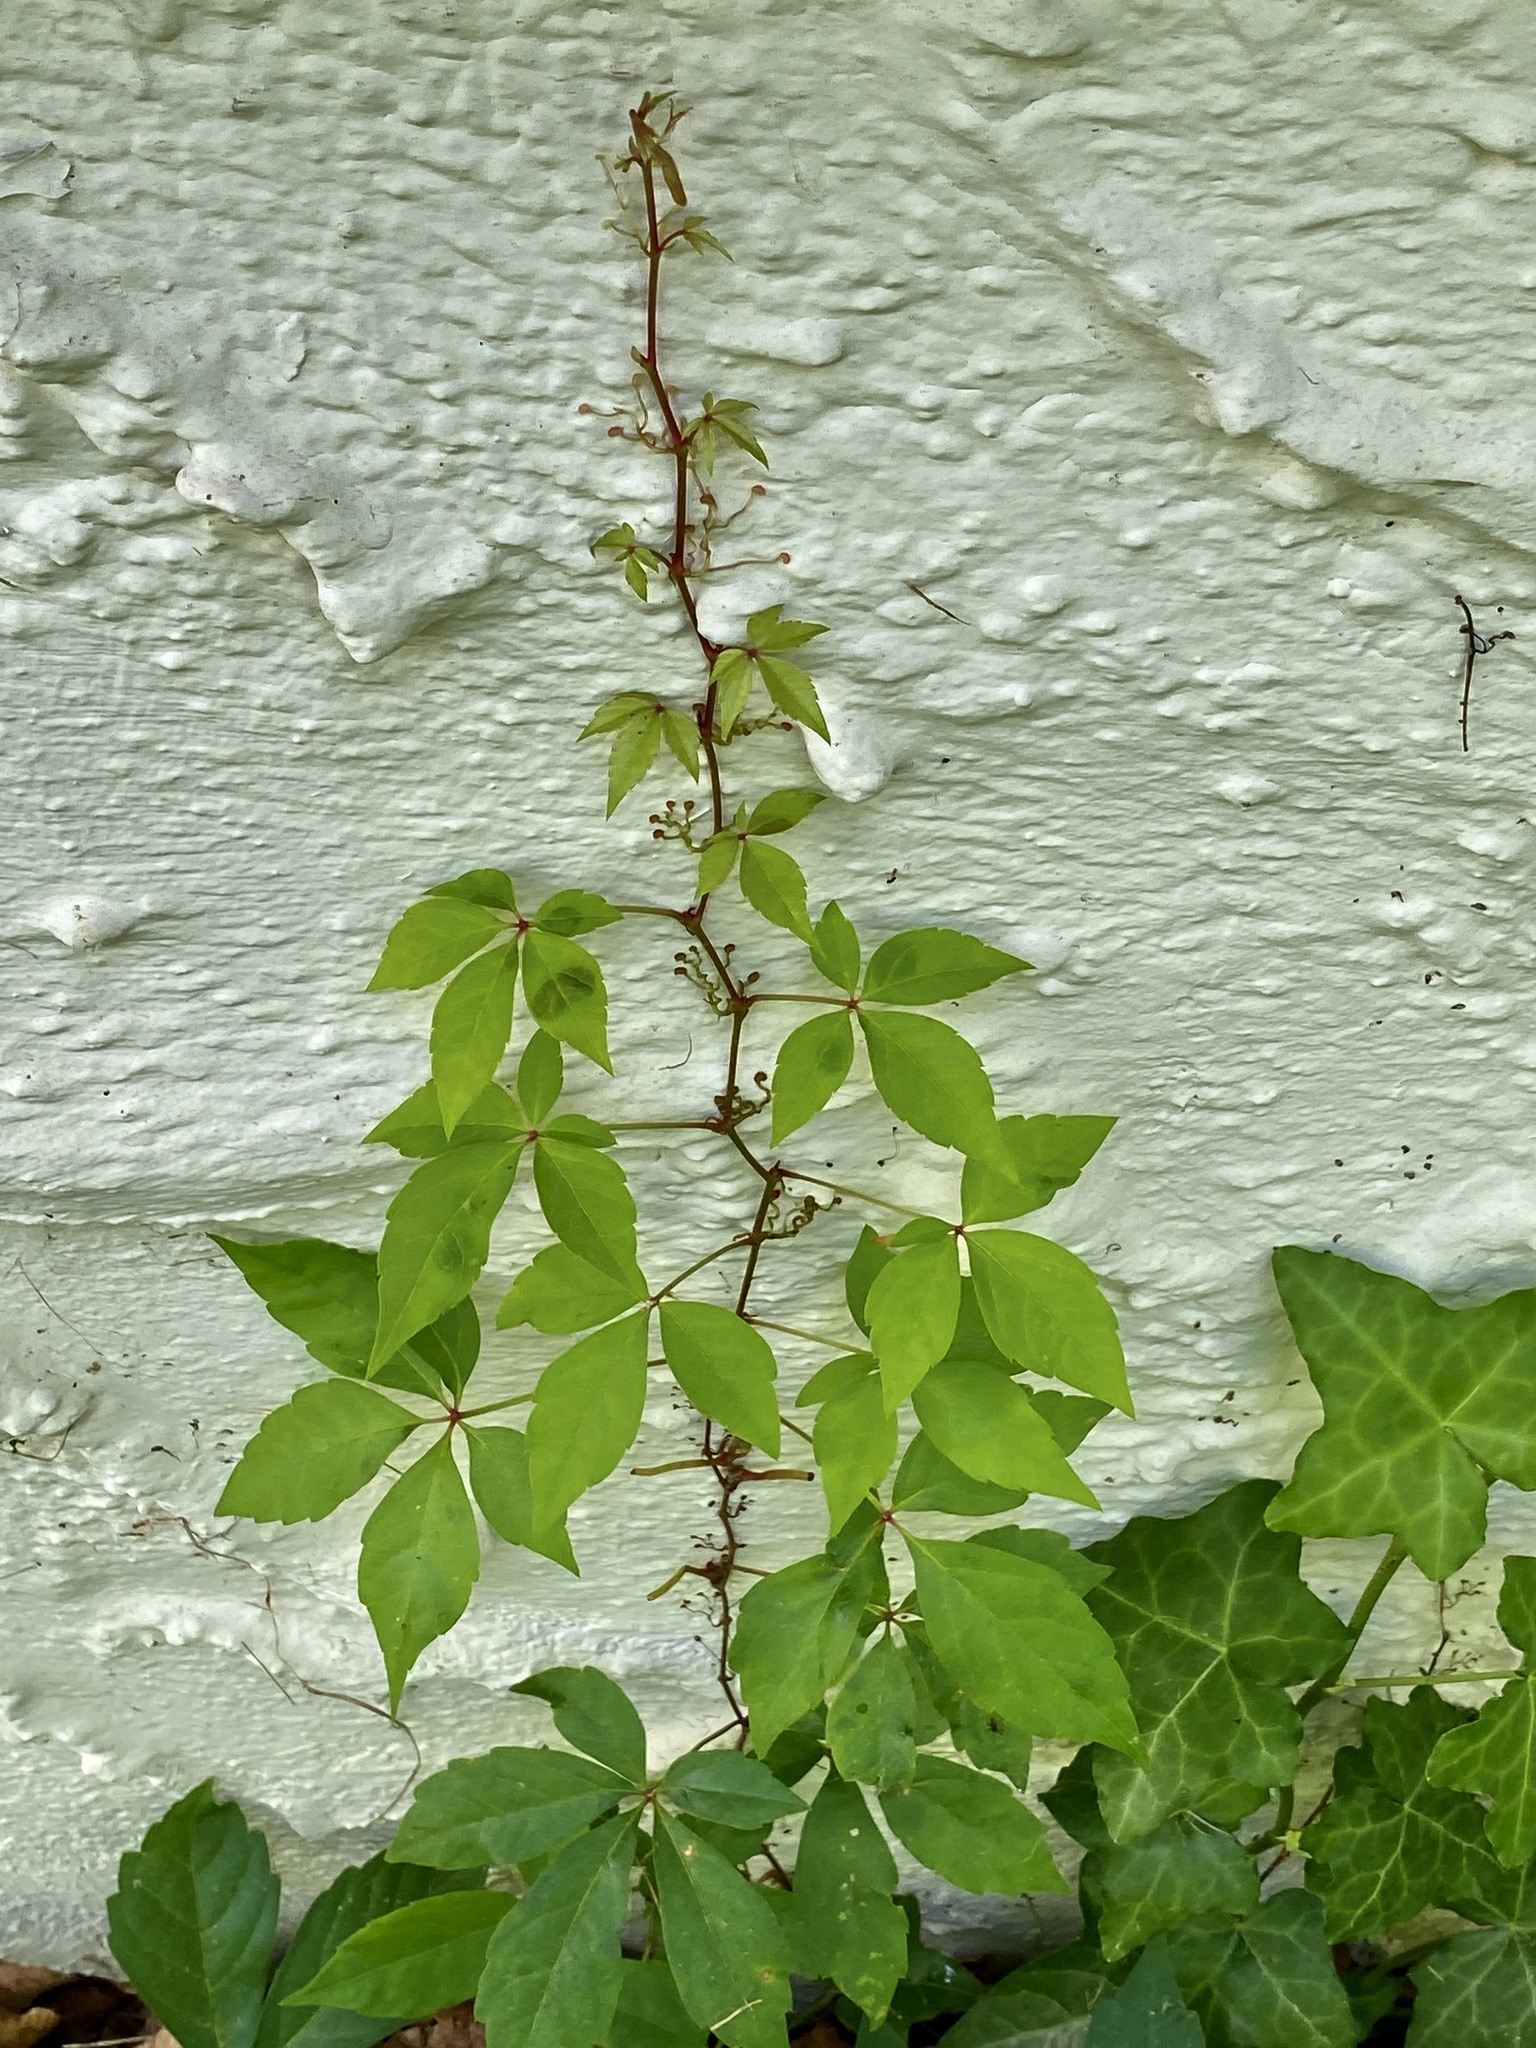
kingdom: Plantae
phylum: Tracheophyta
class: Magnoliopsida
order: Vitales
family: Vitaceae
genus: Parthenocissus
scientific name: Parthenocissus quinquefolia
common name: Virginia-creeper
